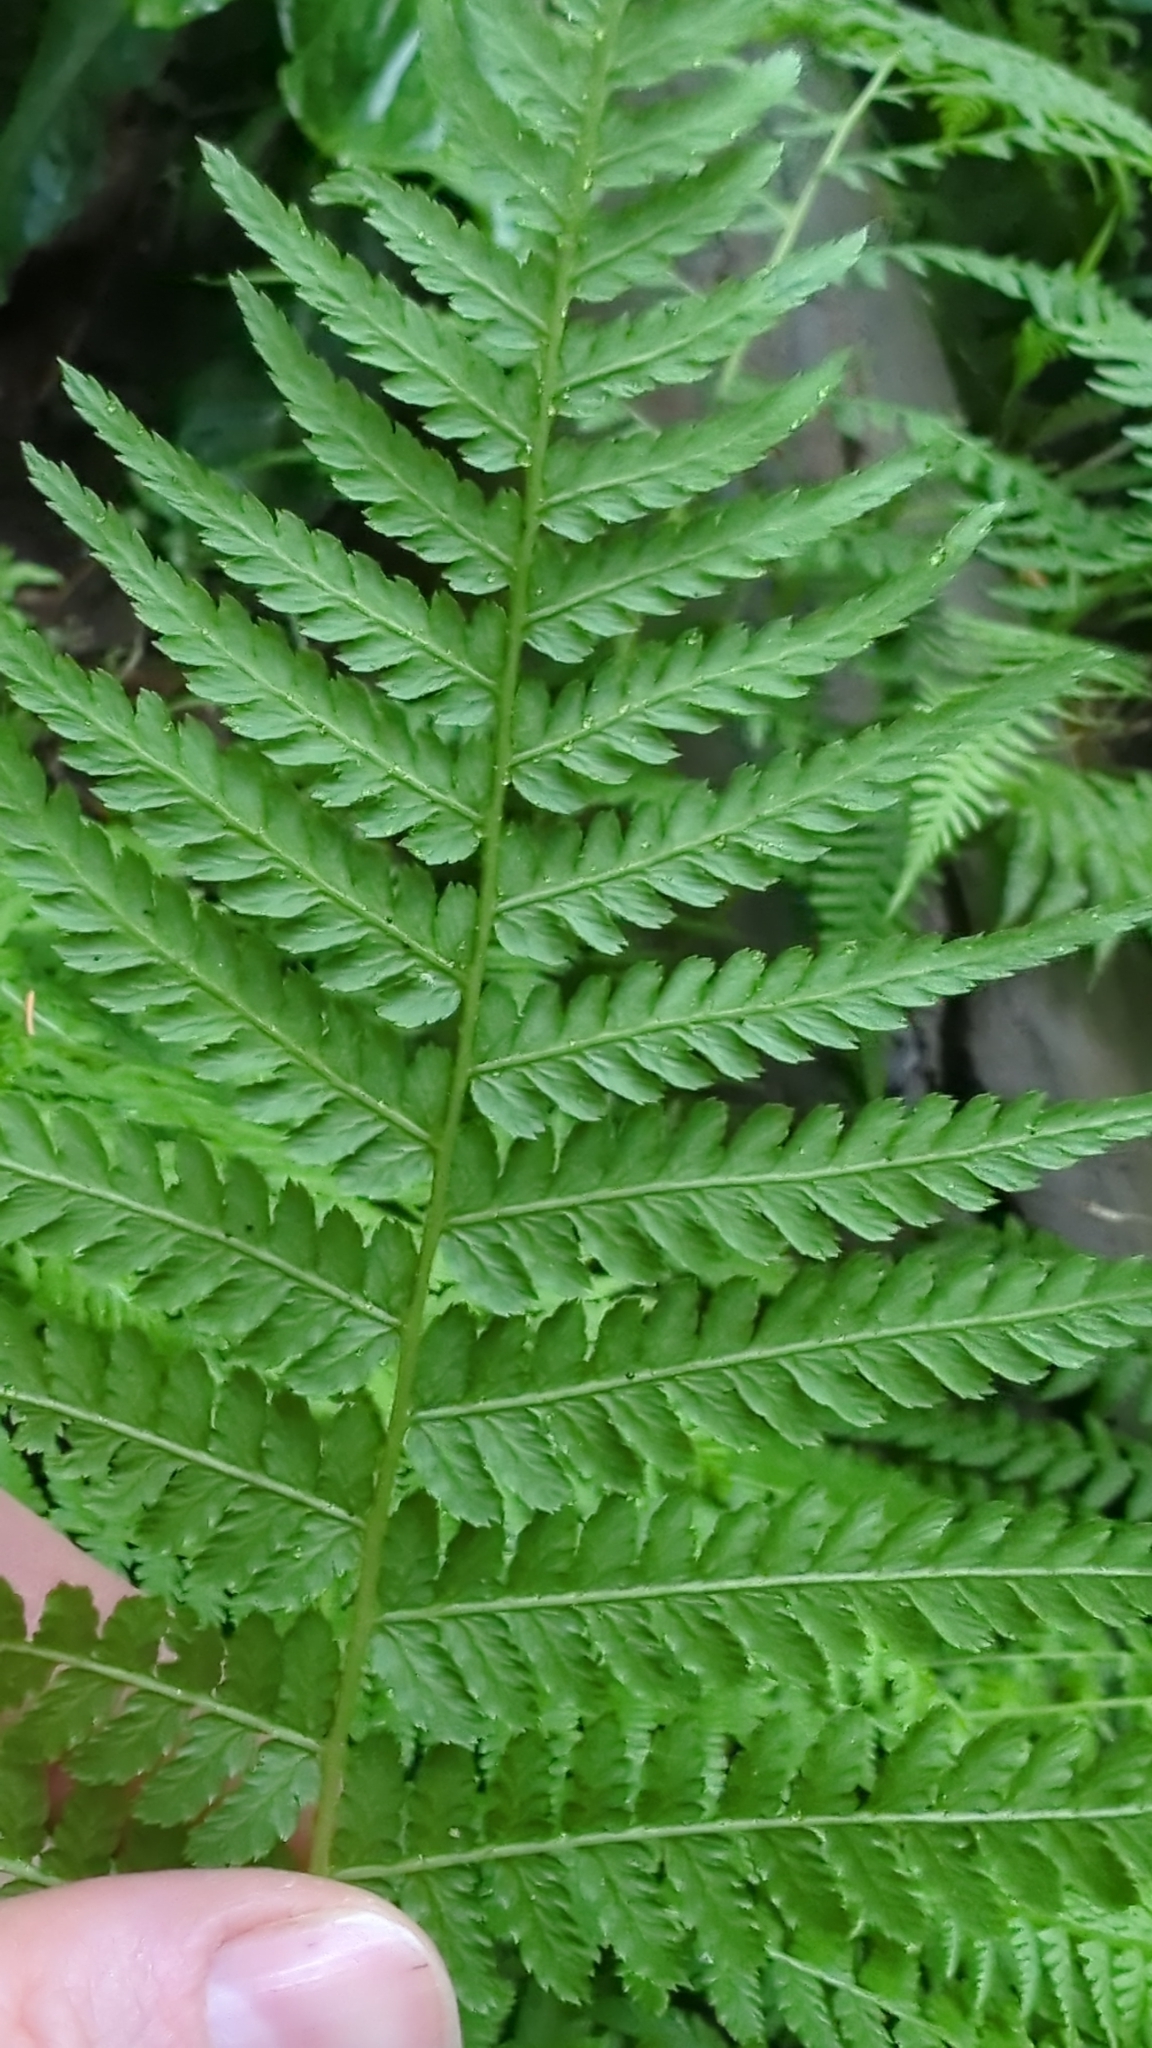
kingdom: Plantae
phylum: Tracheophyta
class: Polypodiopsida
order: Polypodiales
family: Athyriaceae
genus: Athyrium
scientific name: Athyrium filix-femina
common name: Lady fern
